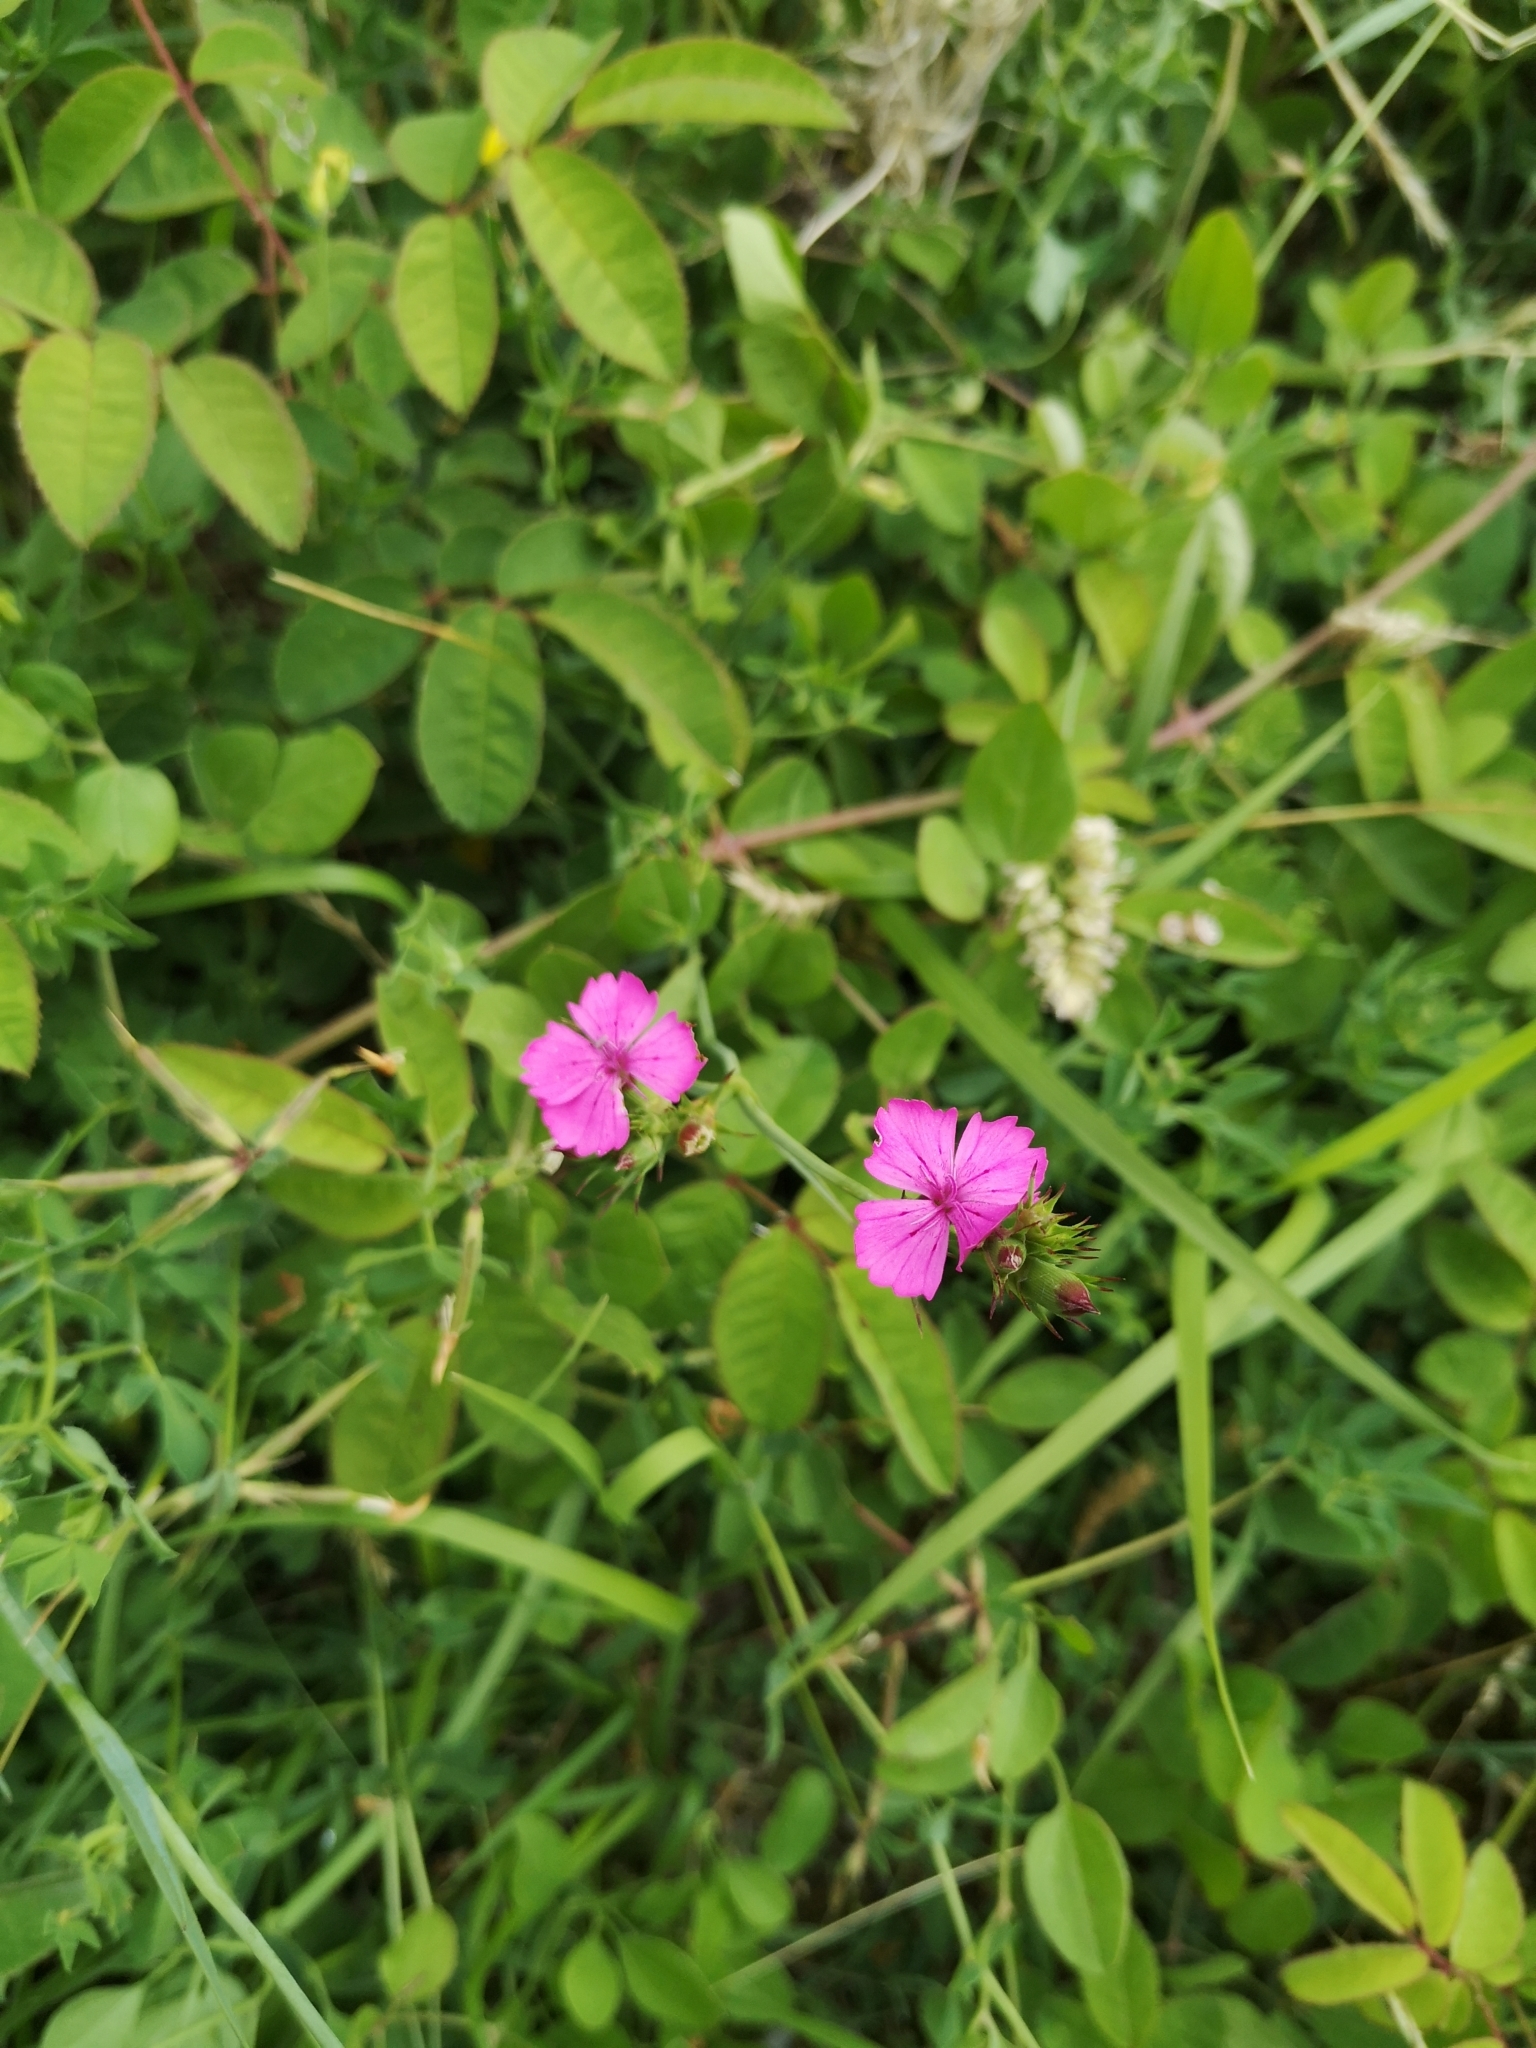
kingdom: Plantae
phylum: Tracheophyta
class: Magnoliopsida
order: Caryophyllales
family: Caryophyllaceae
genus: Dianthus
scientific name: Dianthus balbisii
